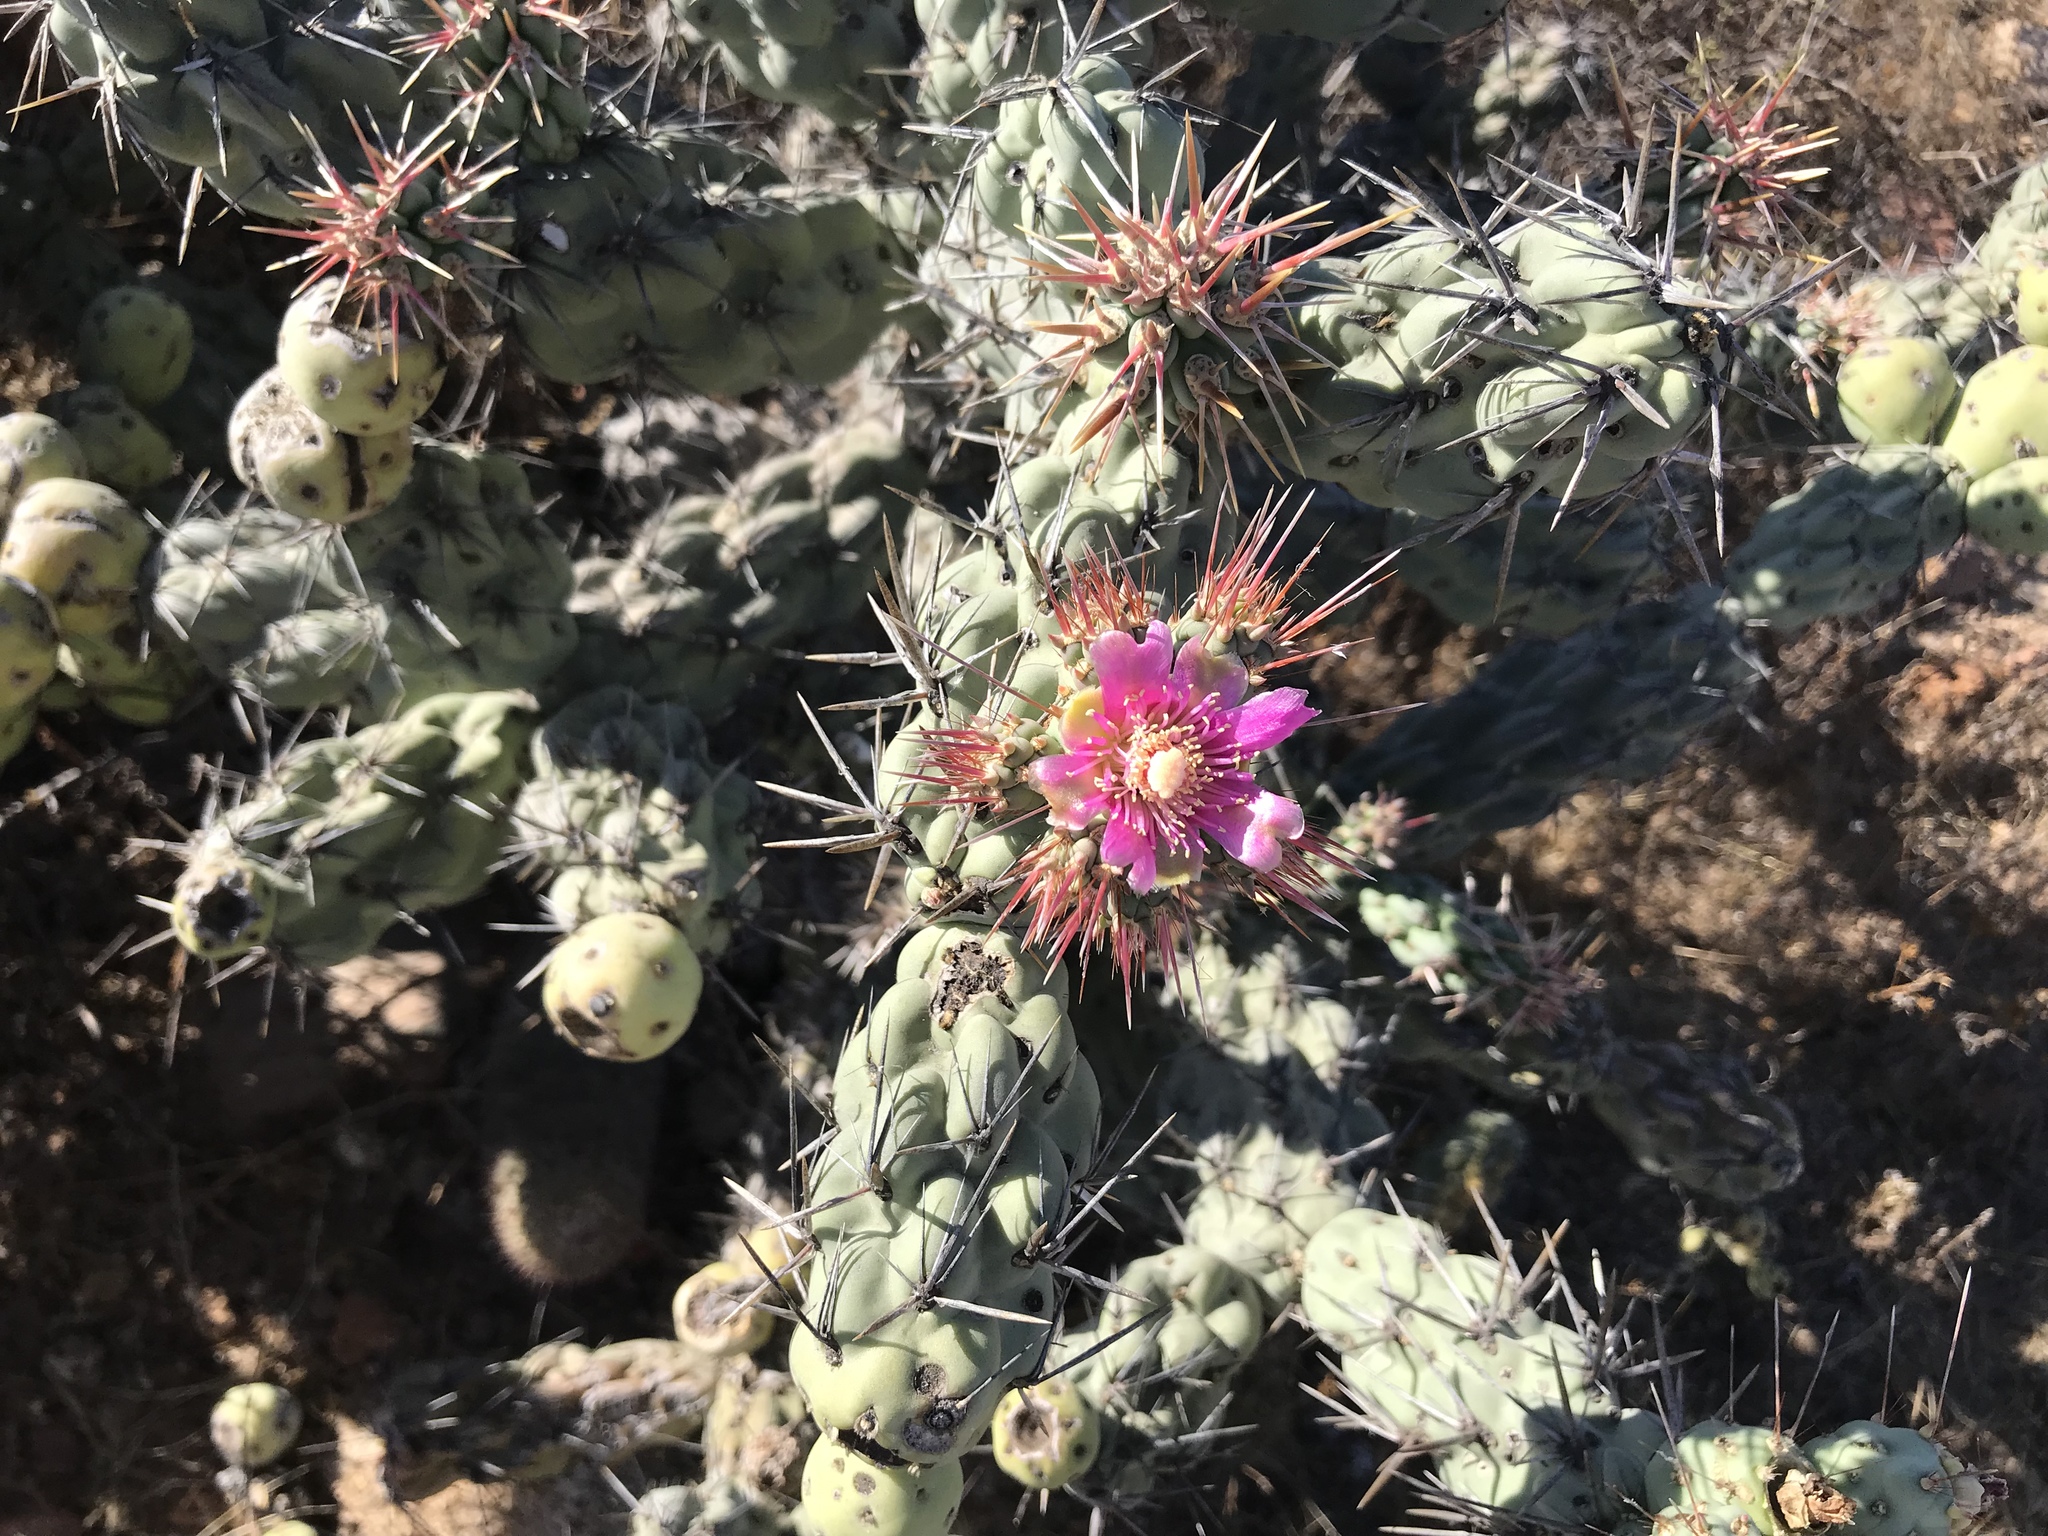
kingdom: Plantae
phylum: Tracheophyta
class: Magnoliopsida
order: Caryophyllales
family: Cactaceae
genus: Cylindropuntia
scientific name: Cylindropuntia cholla
